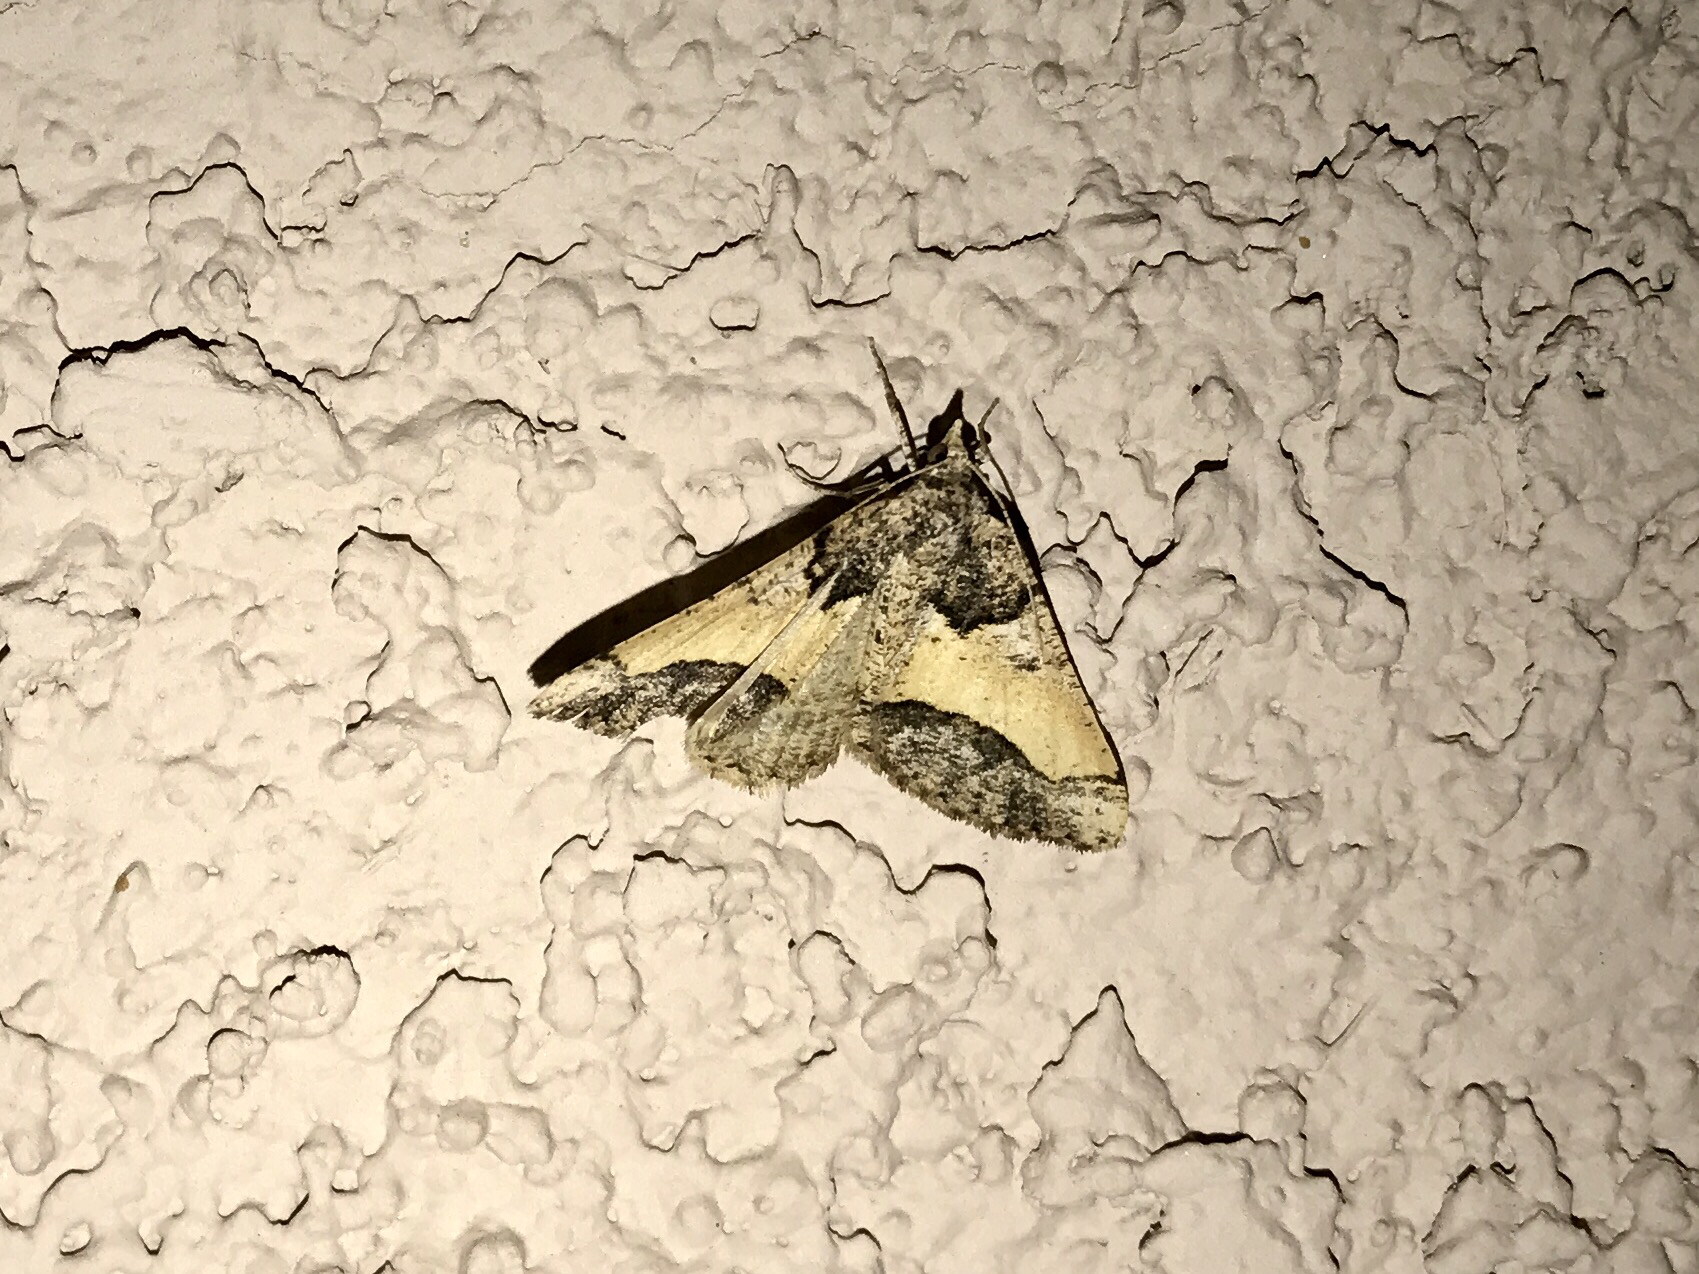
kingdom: Animalia
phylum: Arthropoda
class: Insecta
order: Lepidoptera
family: Geometridae
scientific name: Geometridae
